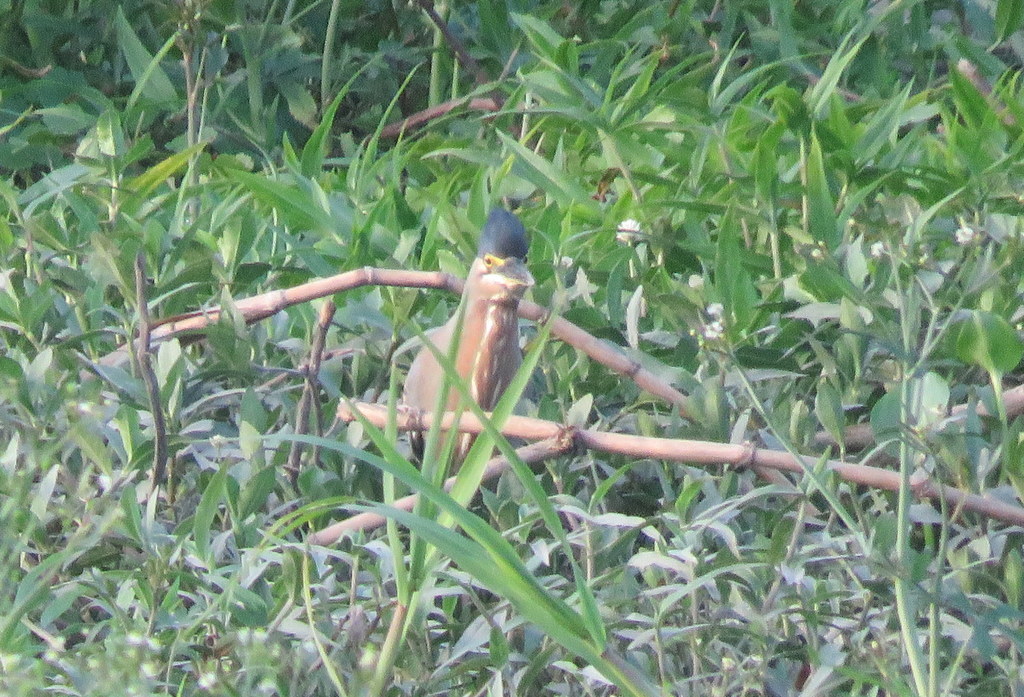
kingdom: Animalia
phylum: Chordata
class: Aves
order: Pelecaniformes
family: Ardeidae
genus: Butorides
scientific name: Butorides striata
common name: Striated heron
